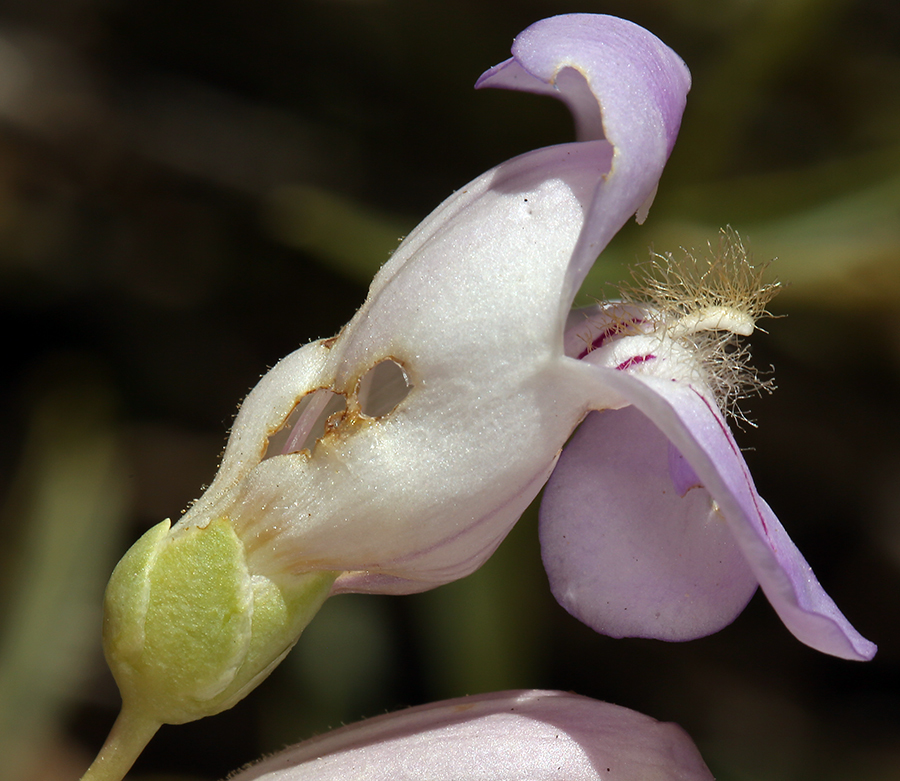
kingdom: Plantae
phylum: Tracheophyta
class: Magnoliopsida
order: Lamiales
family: Plantaginaceae
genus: Penstemon
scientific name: Penstemon fruticiformis
